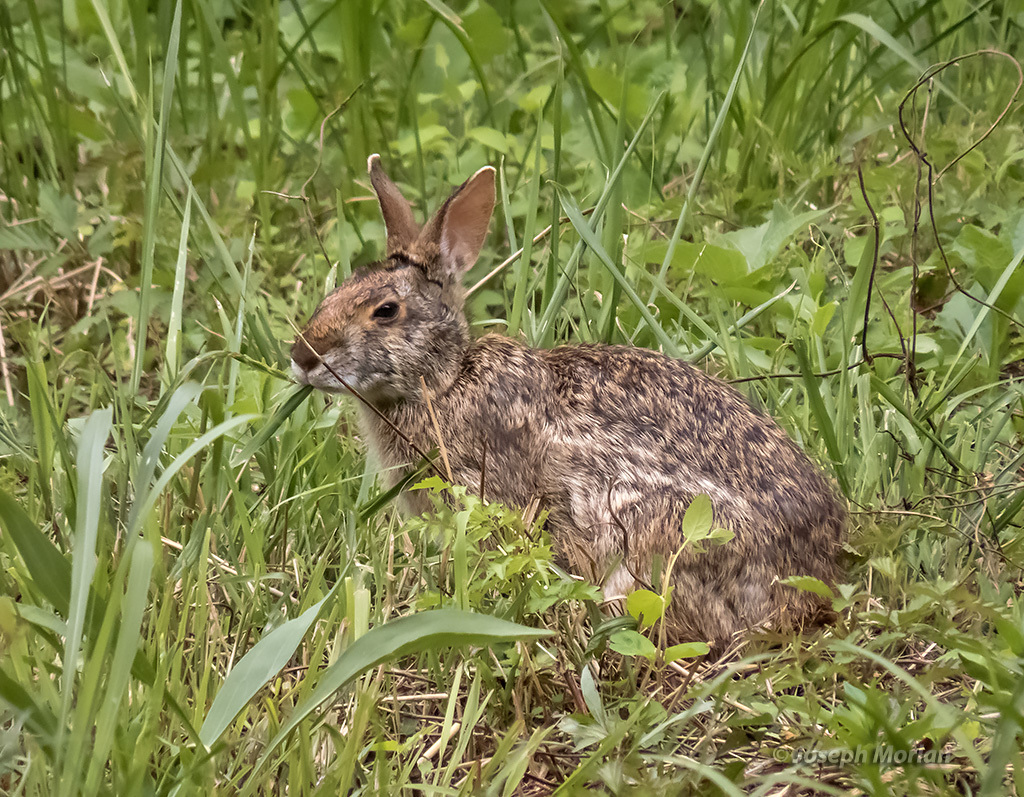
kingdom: Animalia
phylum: Chordata
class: Mammalia
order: Lagomorpha
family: Leporidae
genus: Sylvilagus
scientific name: Sylvilagus aquaticus
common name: Swamp rabbit
